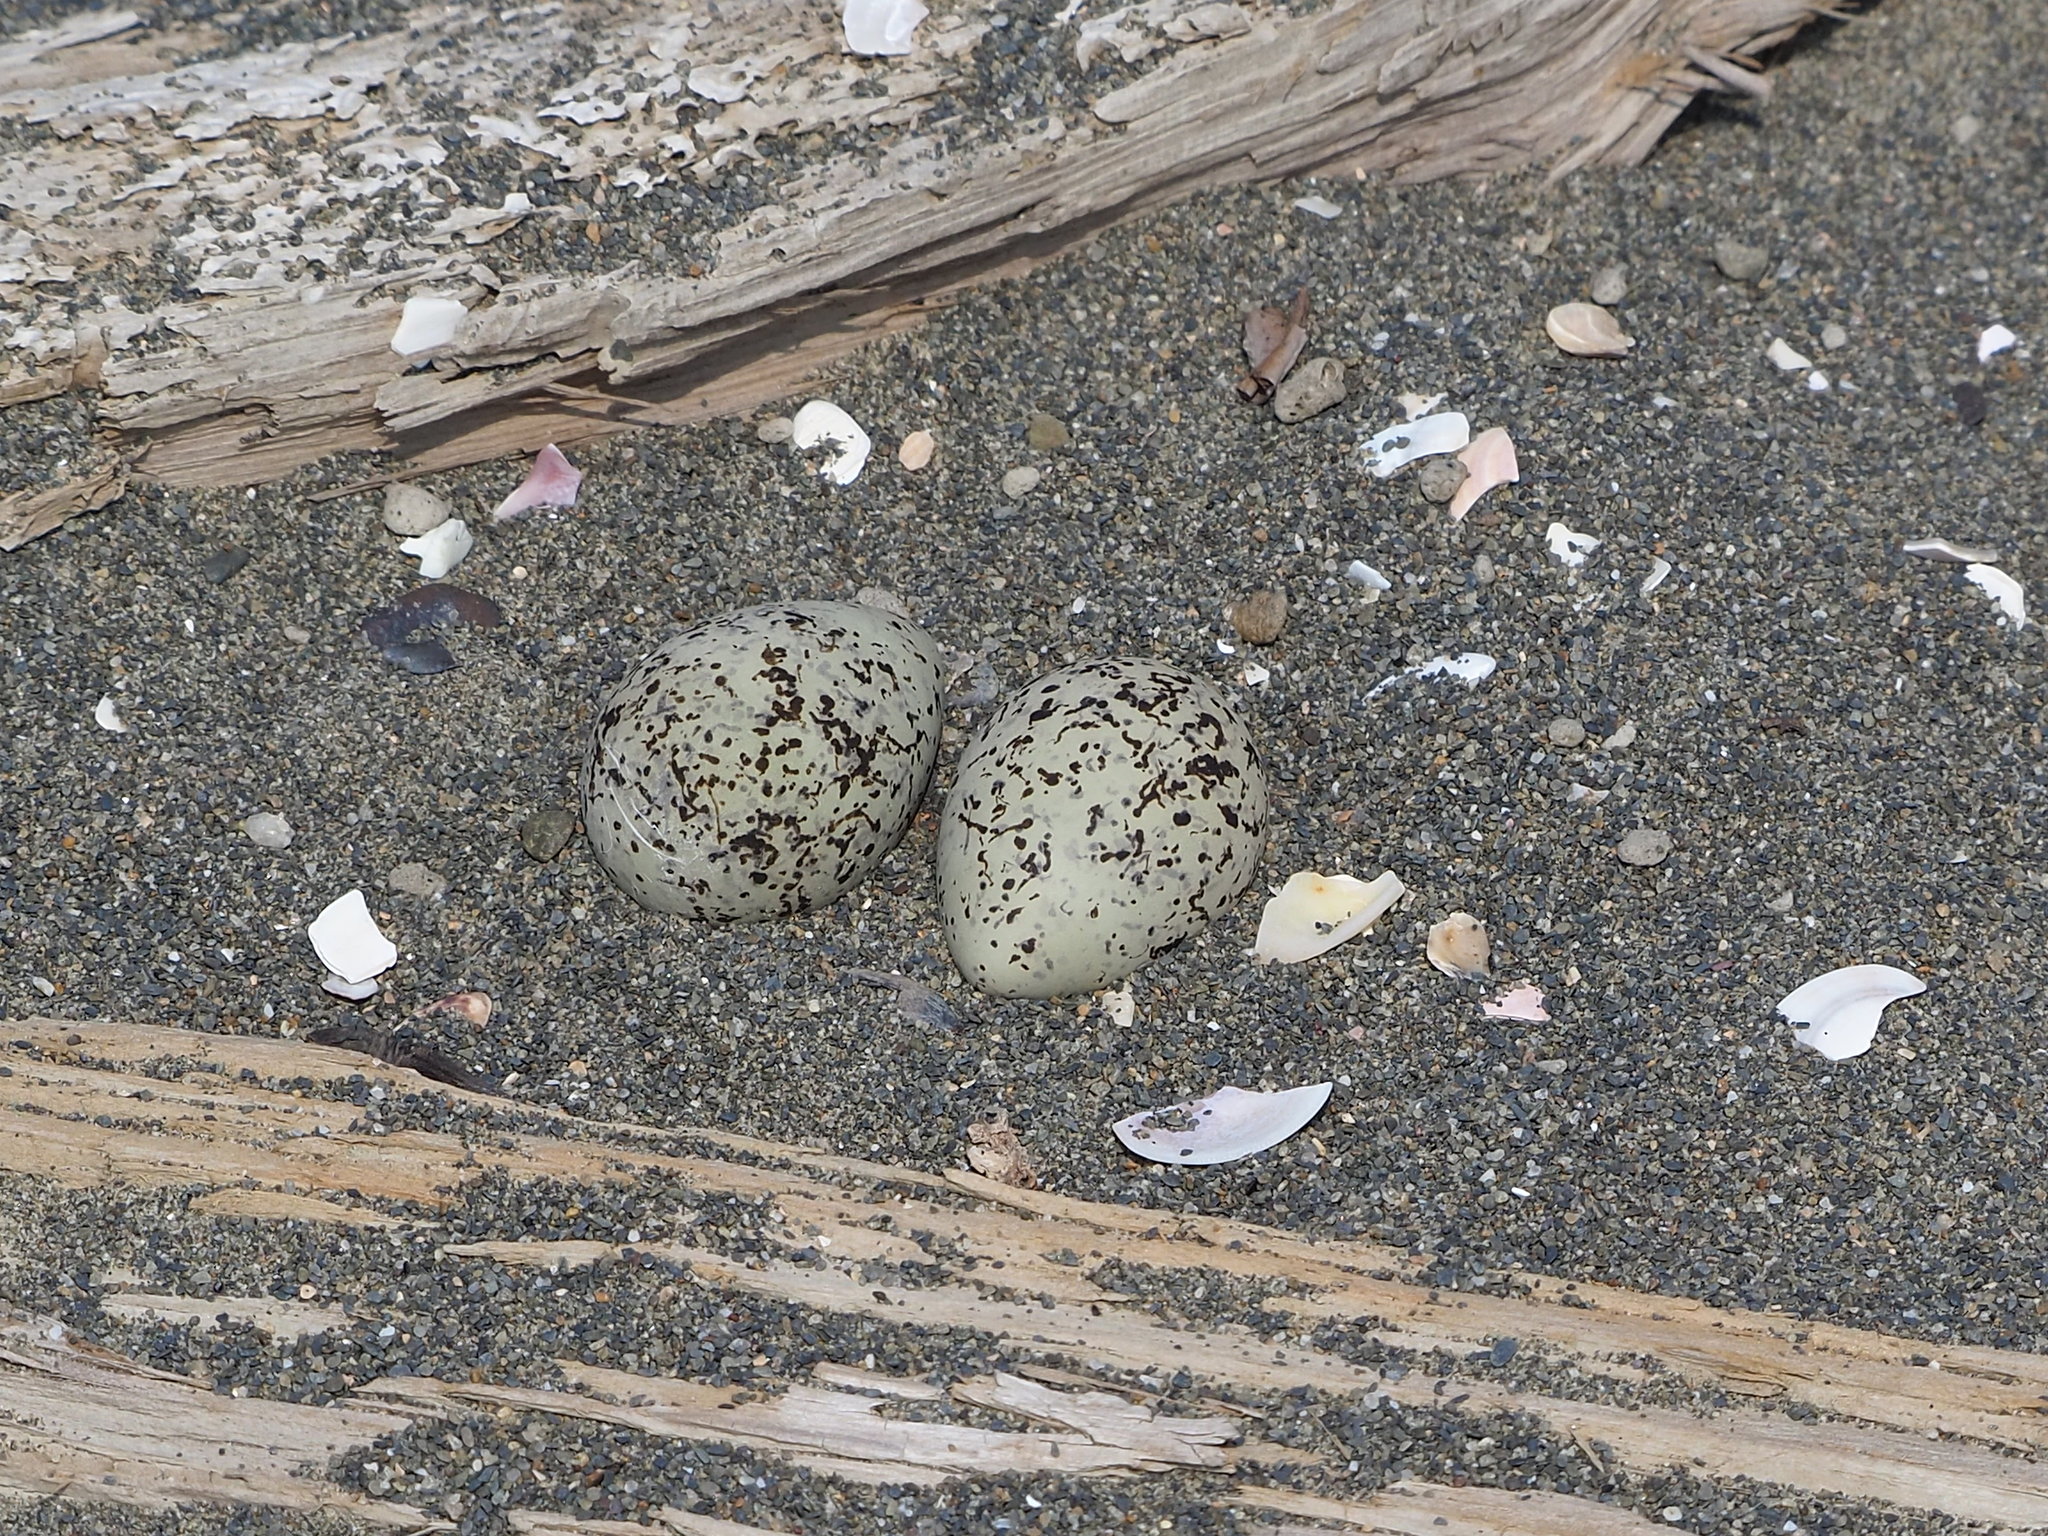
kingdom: Animalia
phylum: Chordata
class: Aves
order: Charadriiformes
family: Charadriidae
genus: Charadrius
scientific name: Charadrius alexandrinus
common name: Kentish plover
